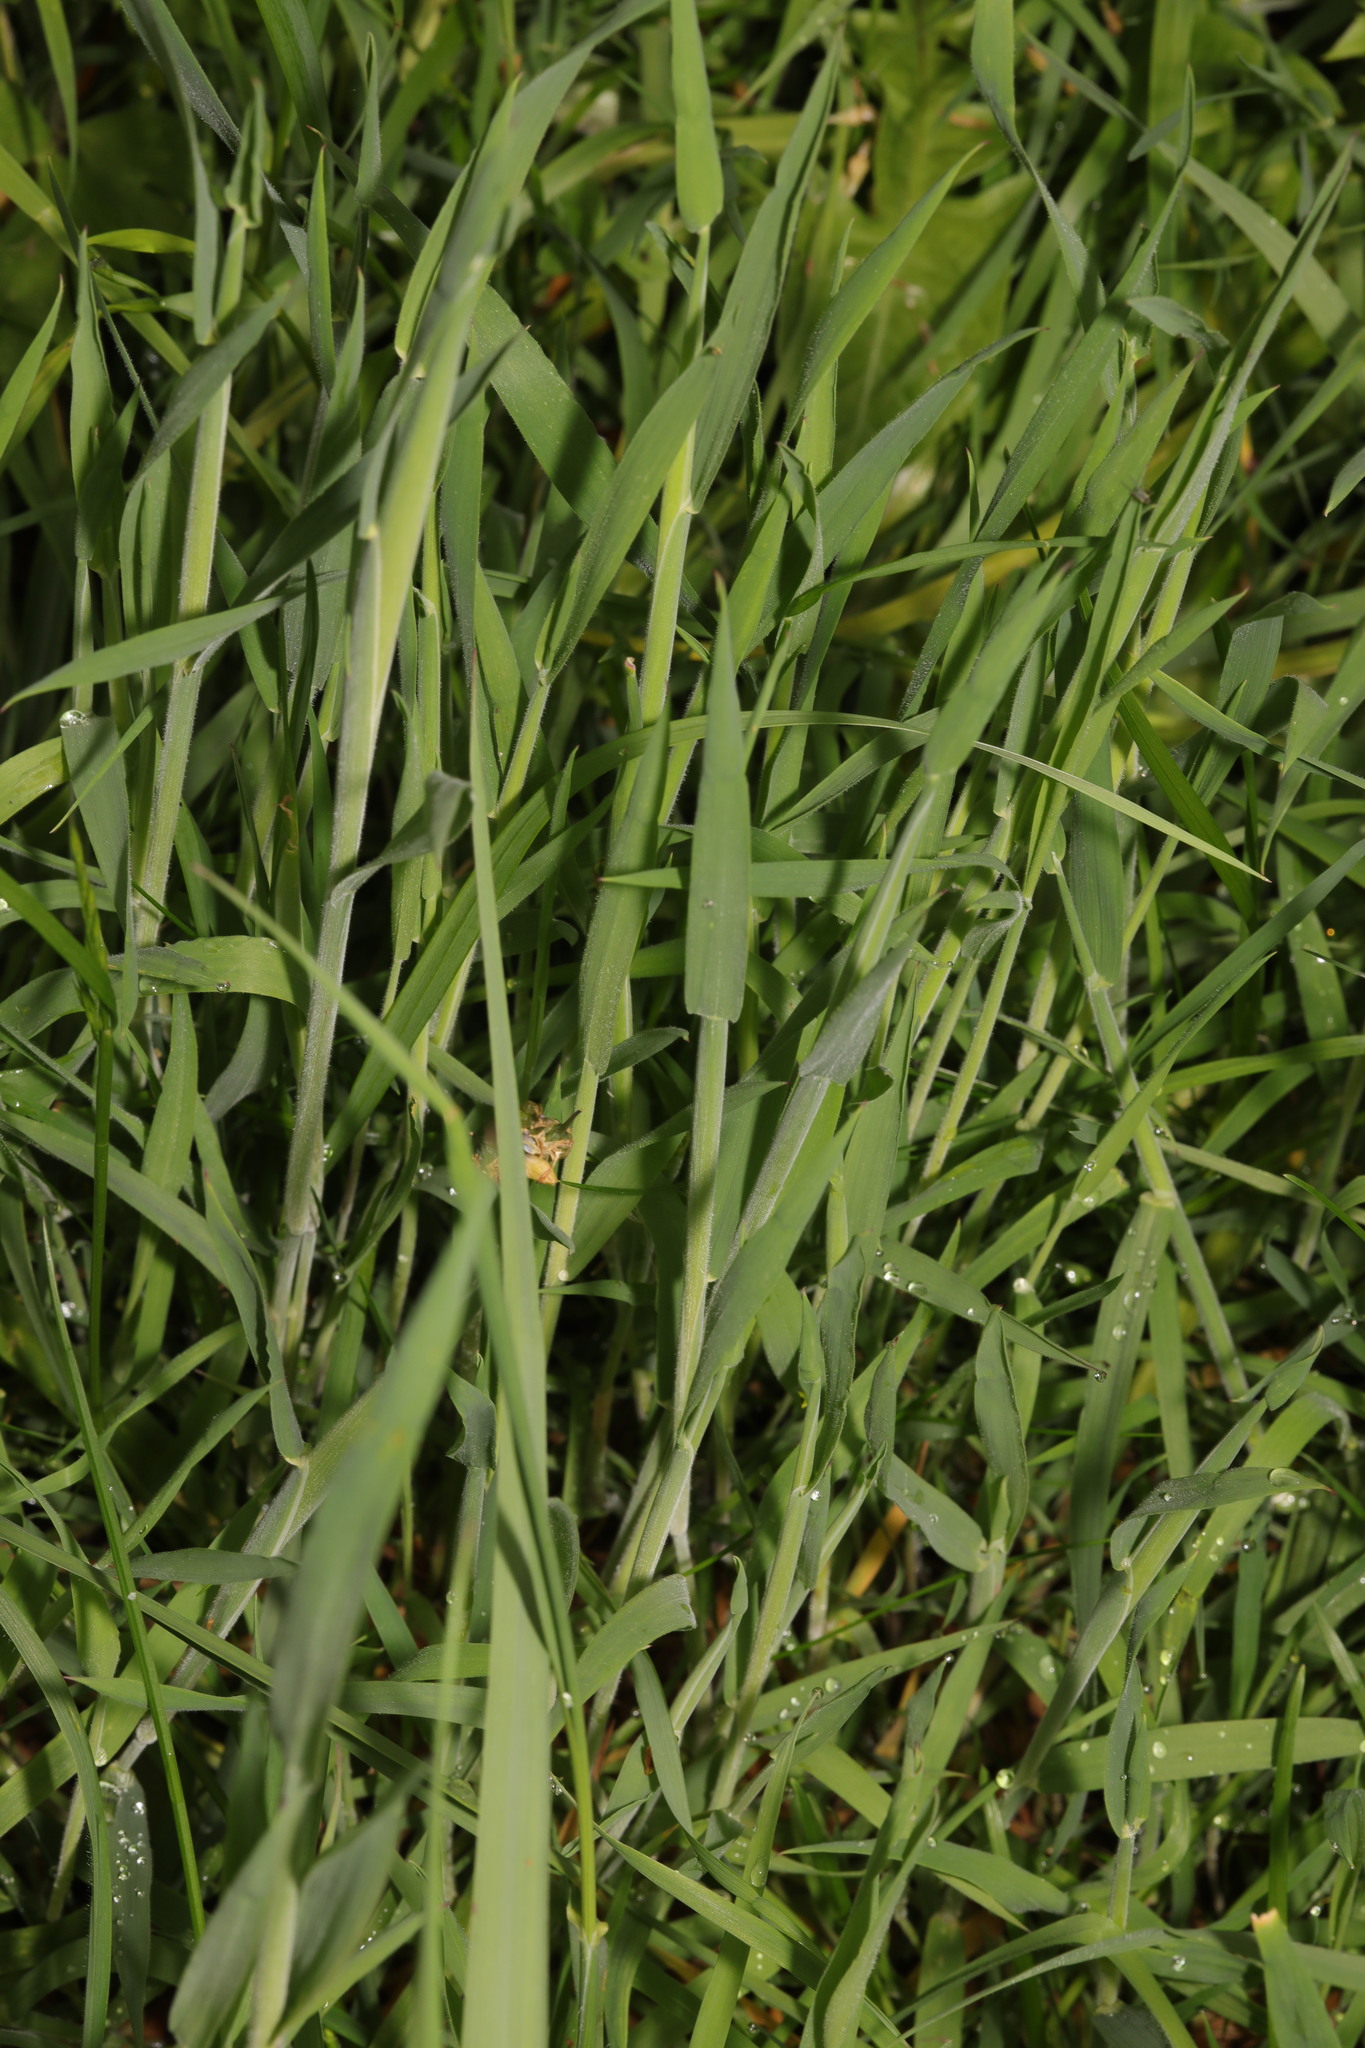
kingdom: Plantae
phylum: Tracheophyta
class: Liliopsida
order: Poales
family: Poaceae
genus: Holcus
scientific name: Holcus lanatus
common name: Yorkshire-fog
